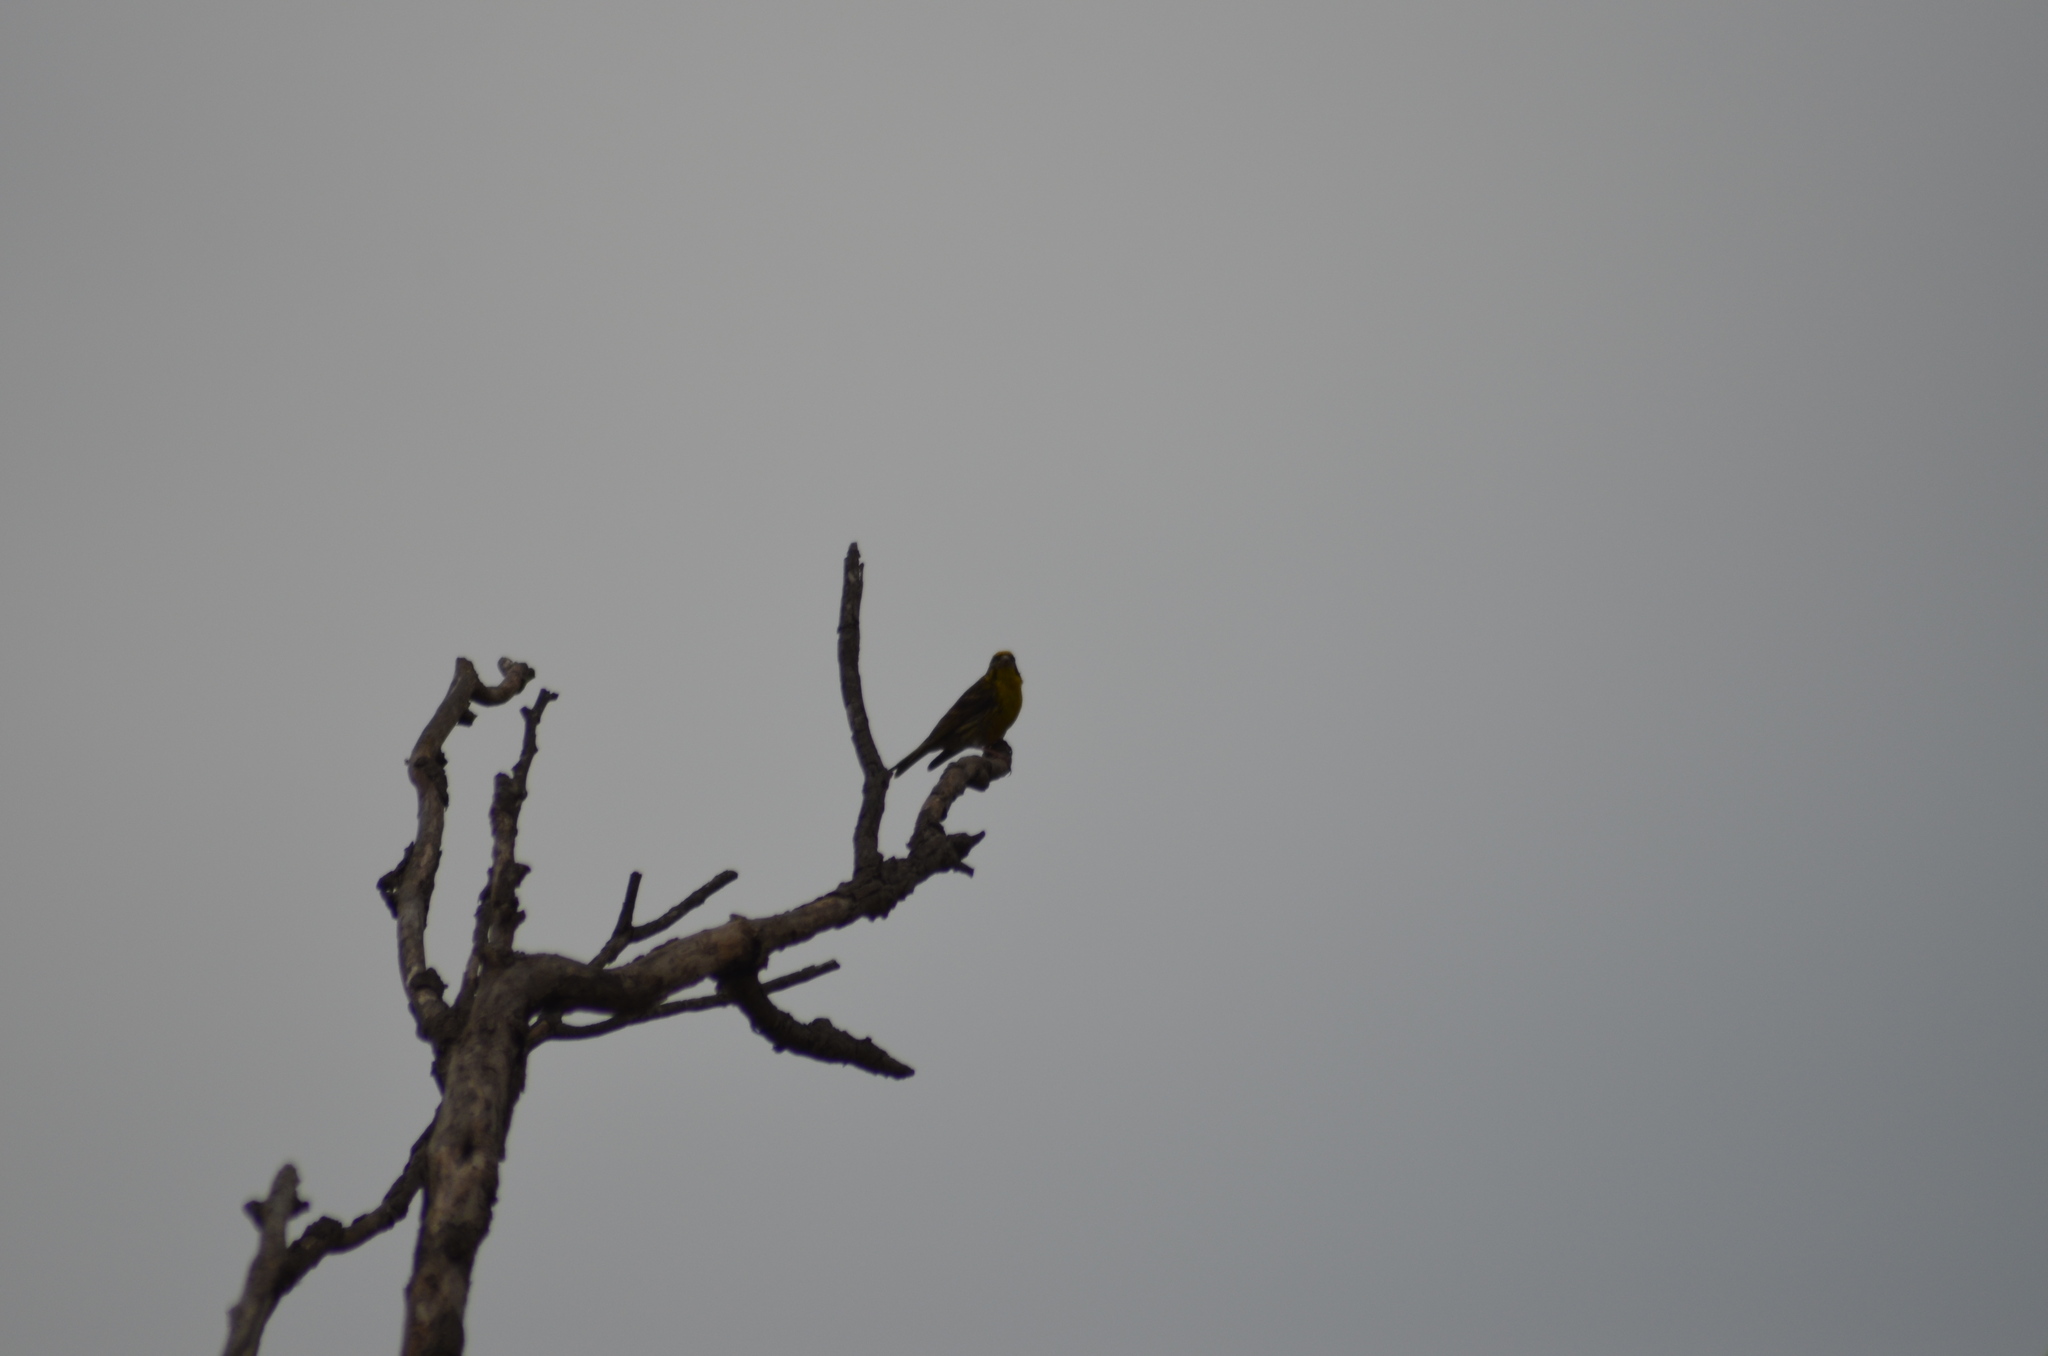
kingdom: Animalia
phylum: Chordata
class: Aves
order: Passeriformes
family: Fringillidae
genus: Serinus
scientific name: Serinus serinus
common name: European serin
